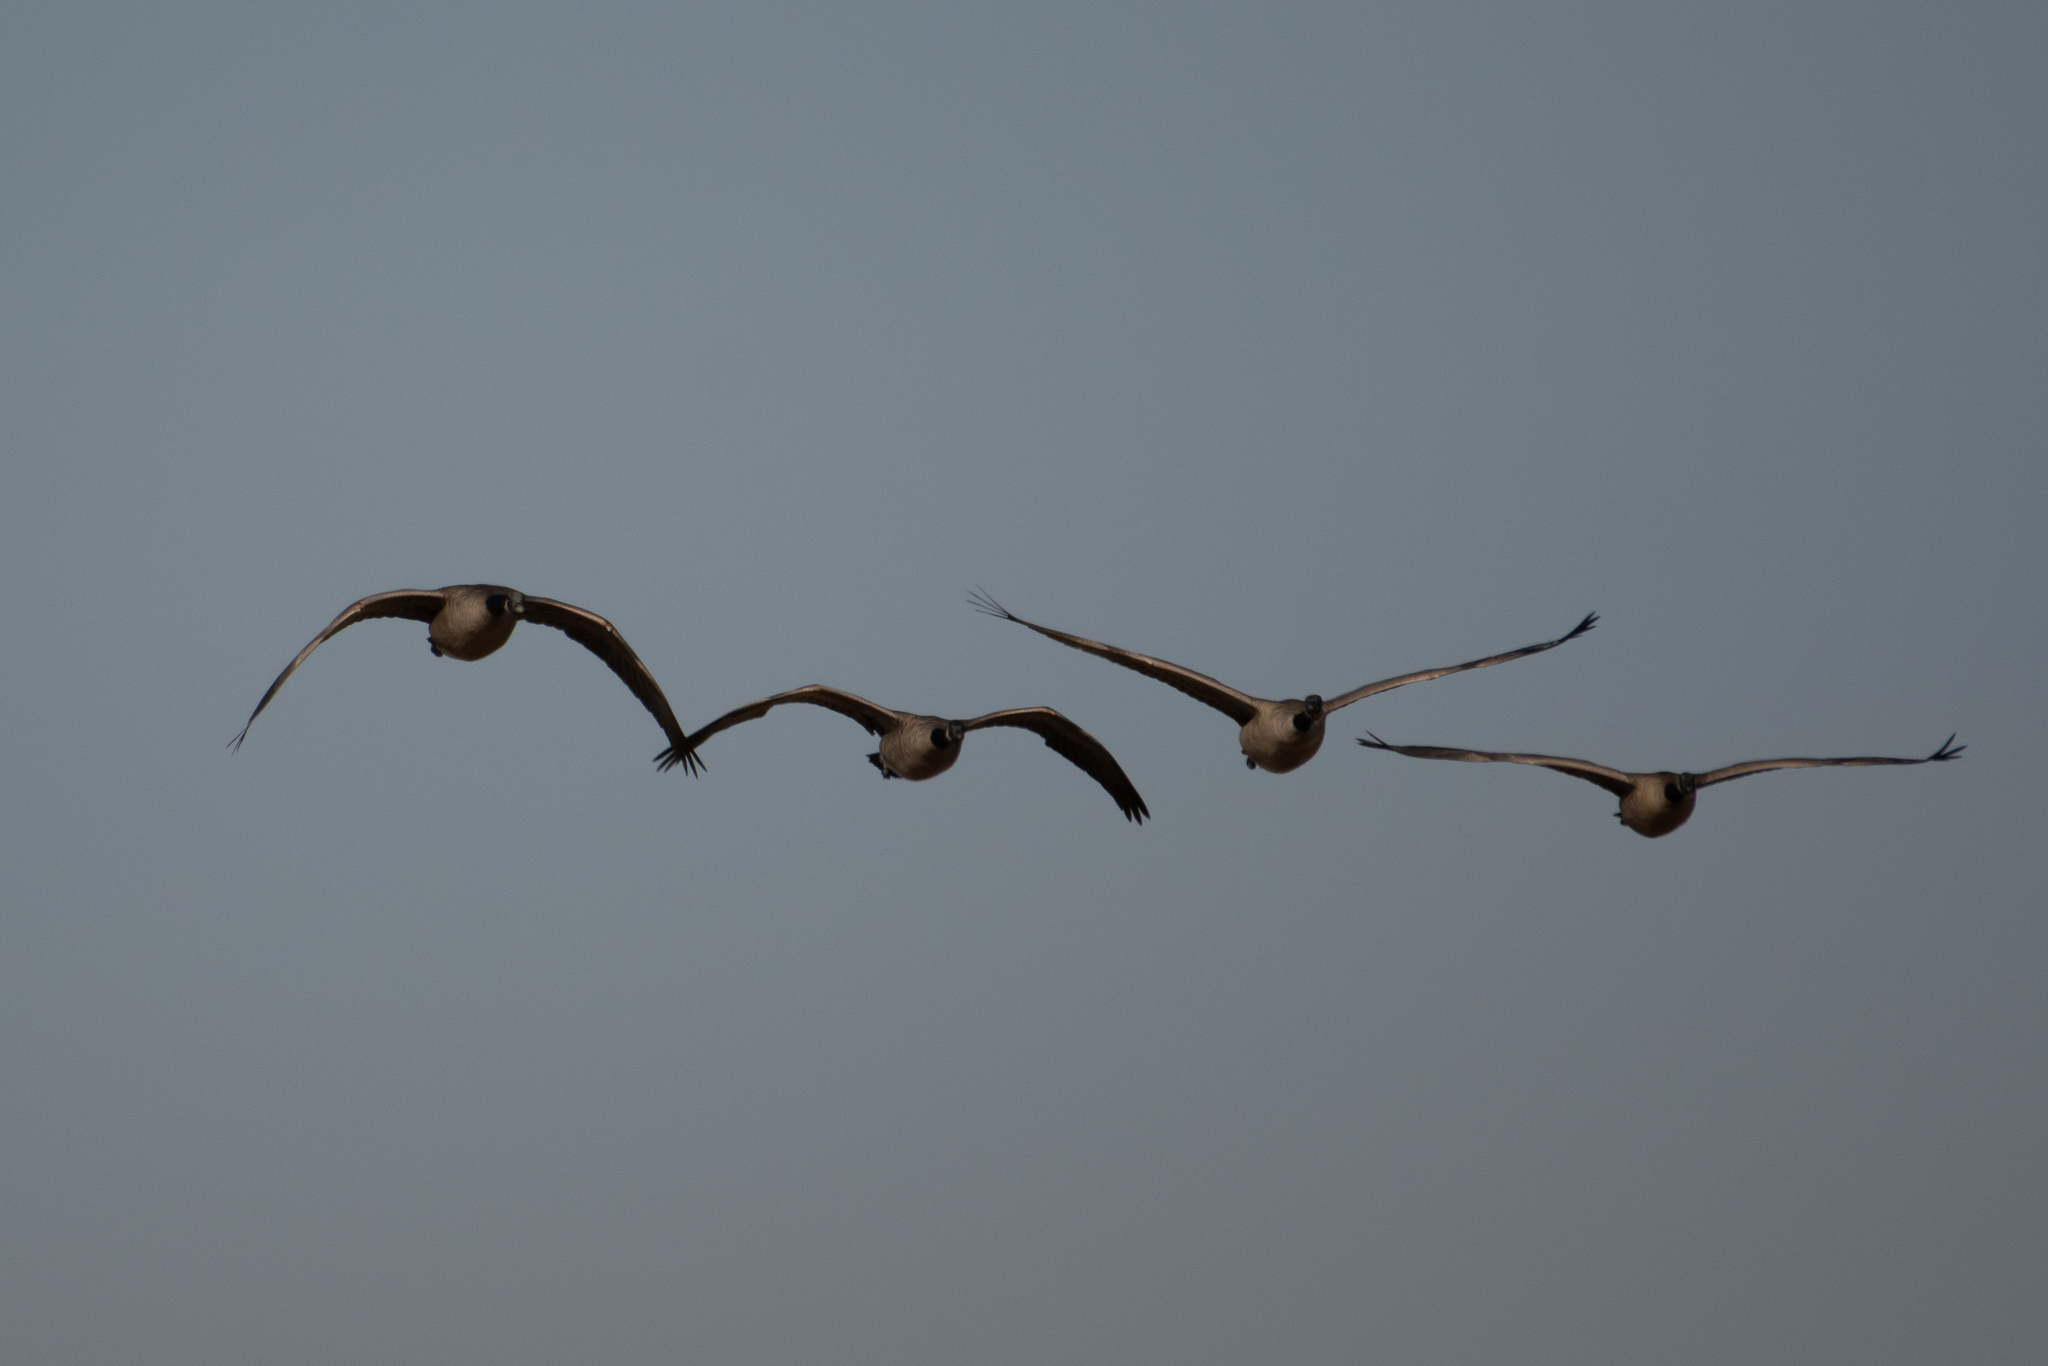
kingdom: Animalia
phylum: Chordata
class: Aves
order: Anseriformes
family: Anatidae
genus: Branta
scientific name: Branta canadensis
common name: Canada goose
